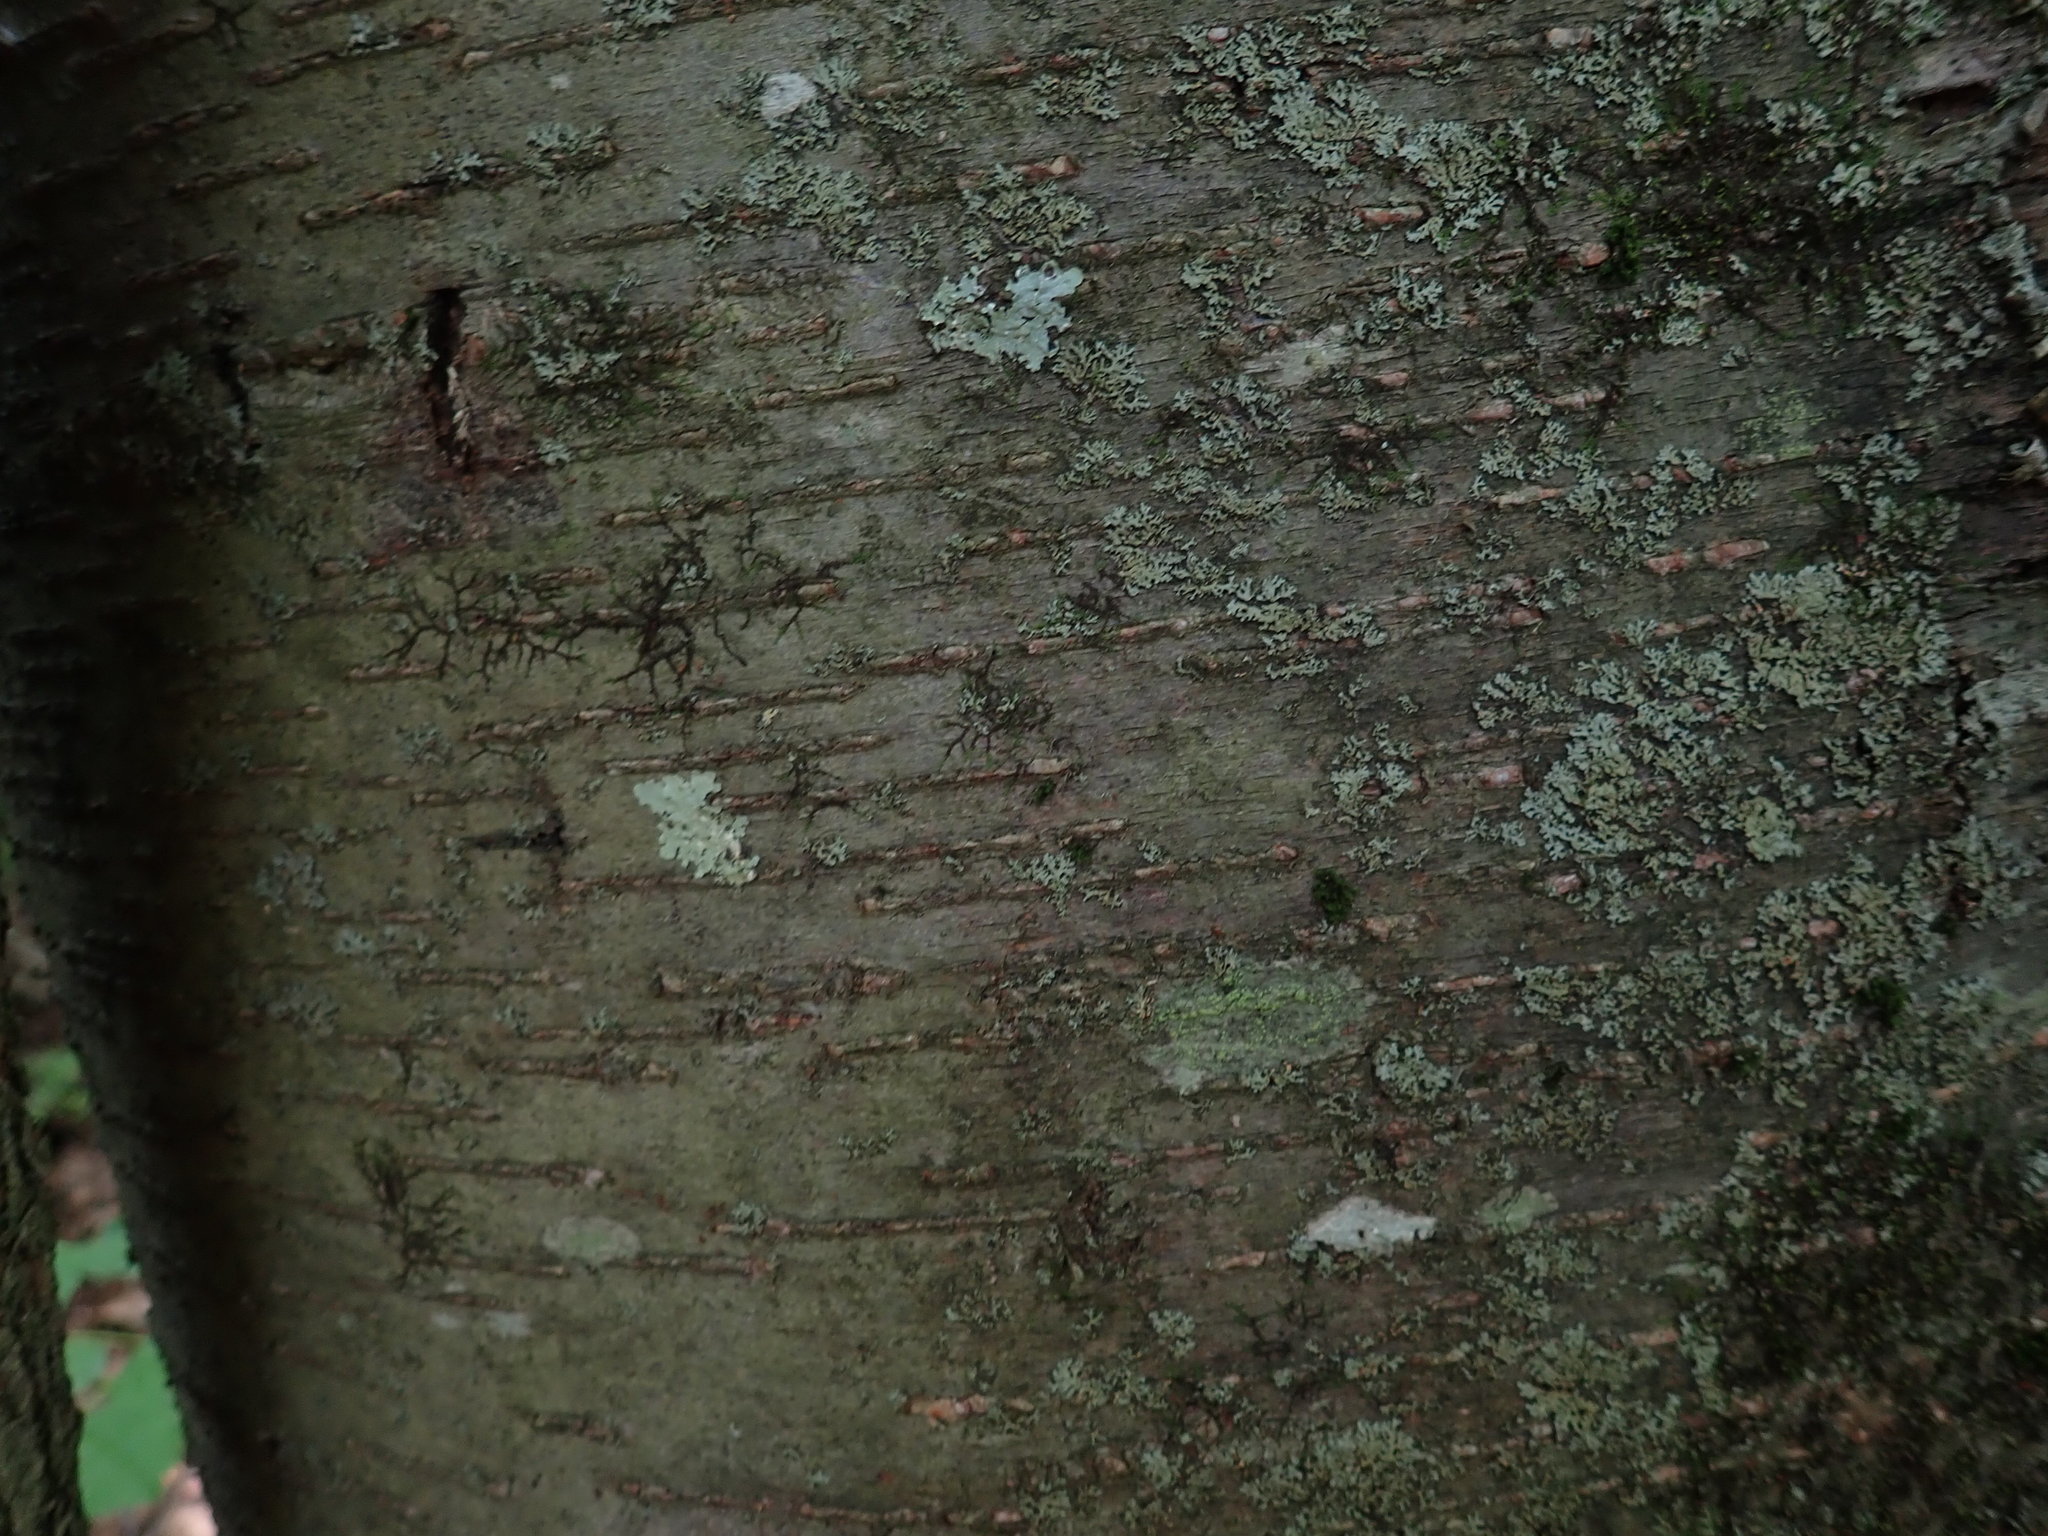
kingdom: Plantae
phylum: Tracheophyta
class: Magnoliopsida
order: Fagales
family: Betulaceae
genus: Betula
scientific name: Betula lenta
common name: Black birch
